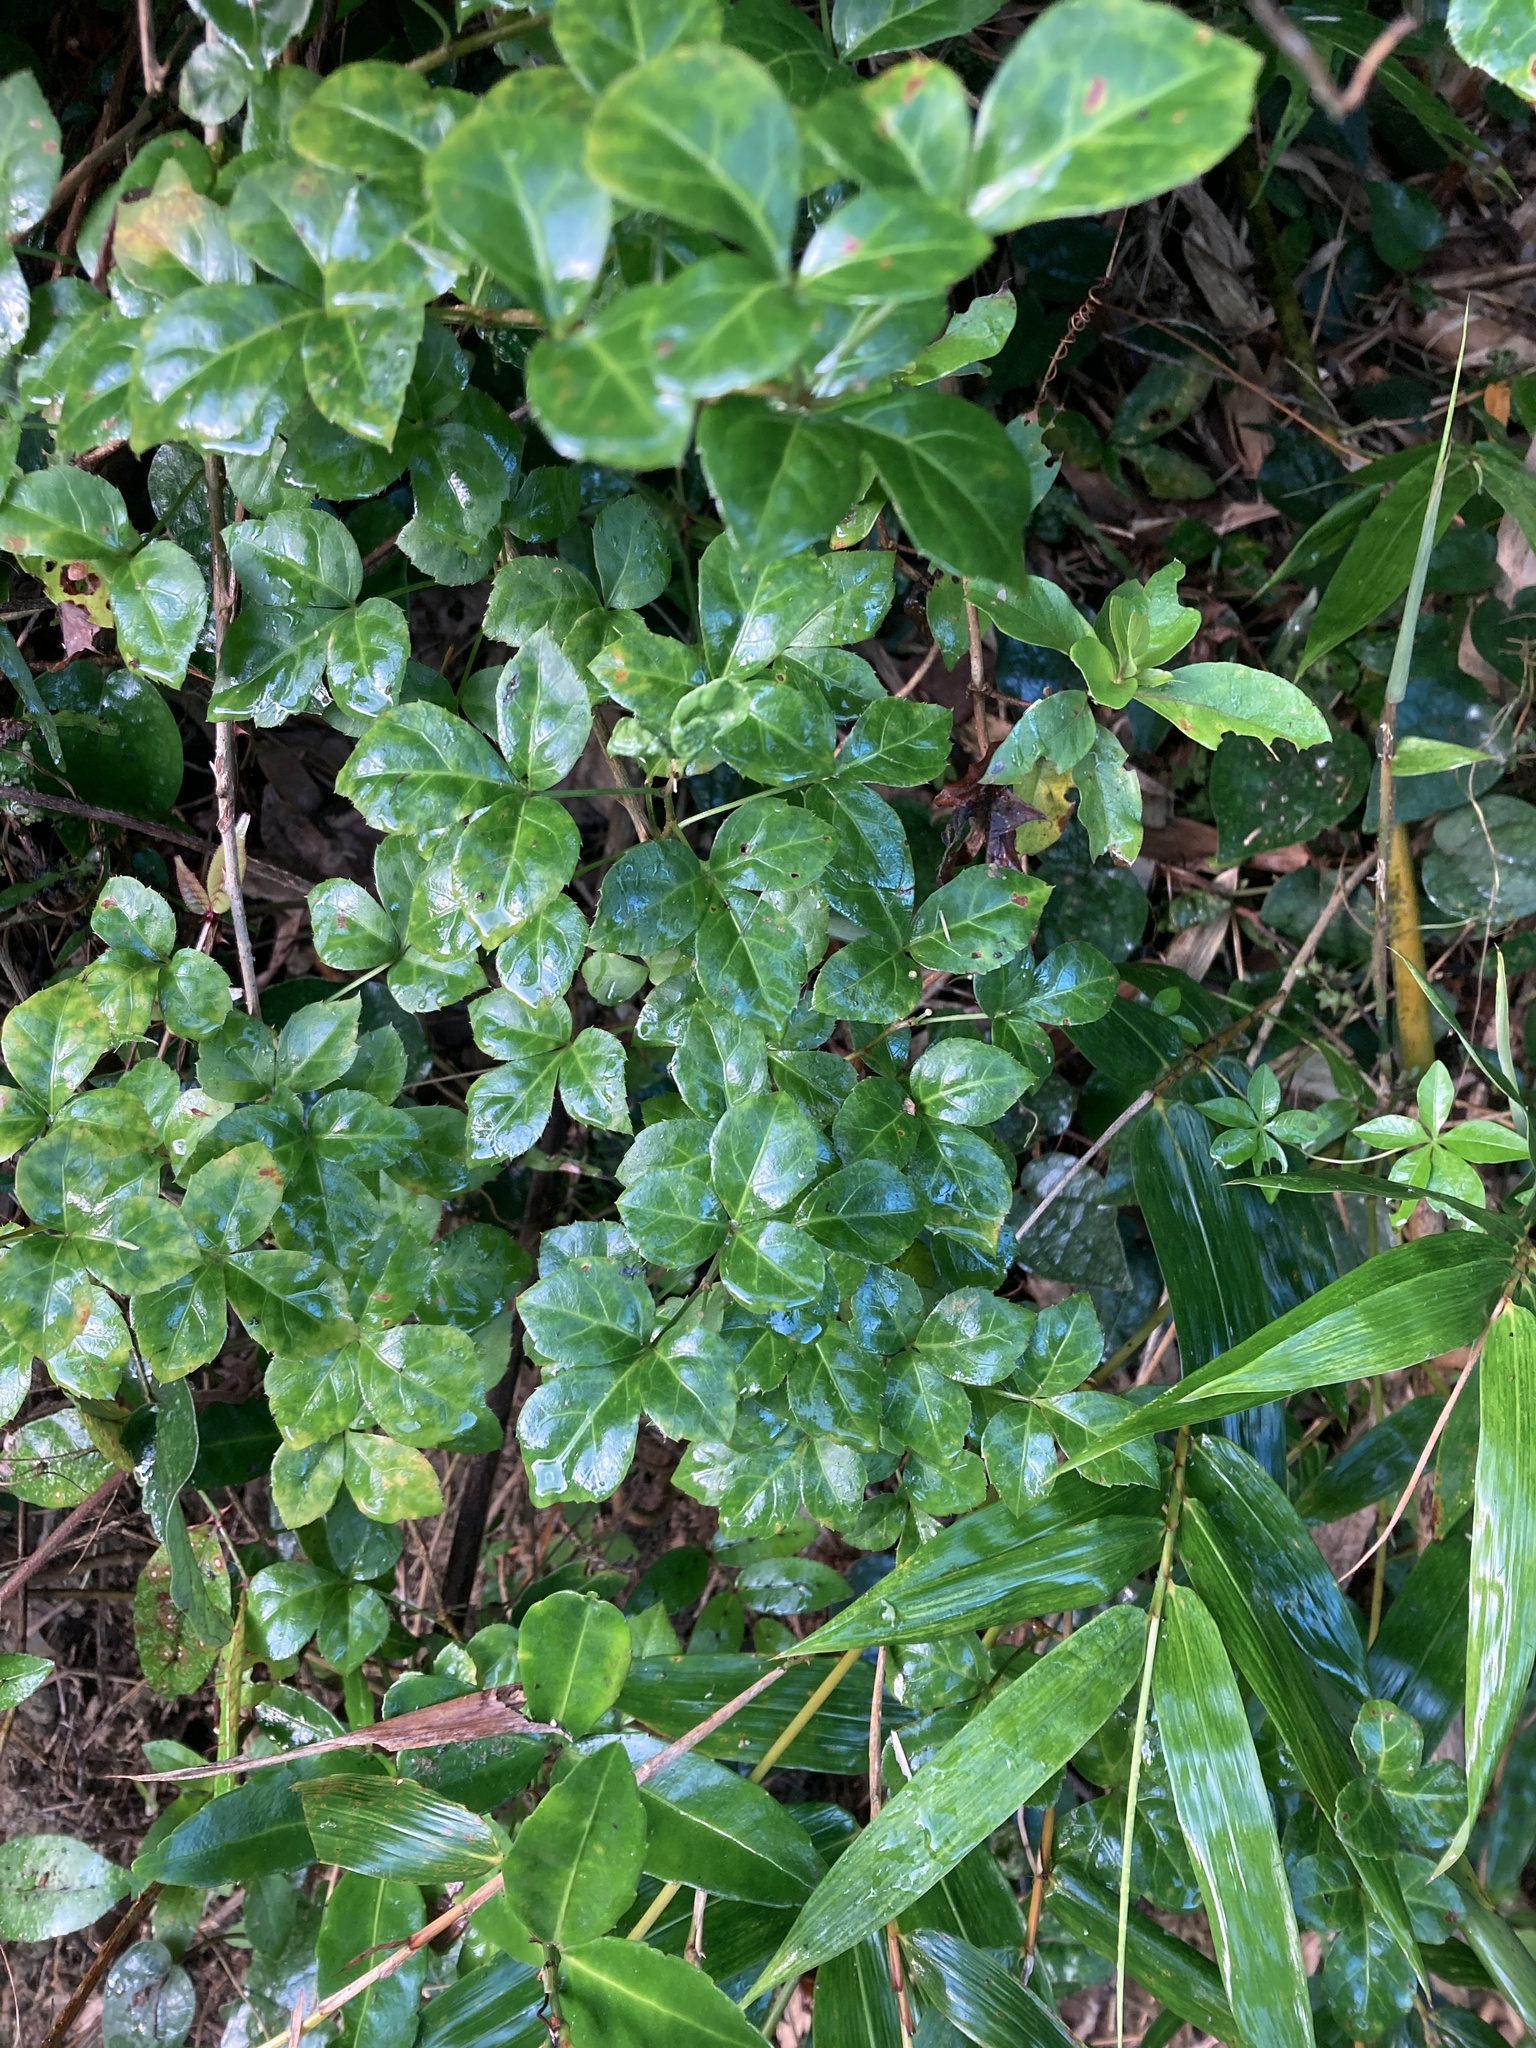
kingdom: Plantae
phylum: Tracheophyta
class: Magnoliopsida
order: Apiales
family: Araliaceae
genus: Eleutherococcus
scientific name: Eleutherococcus trifoliatus
